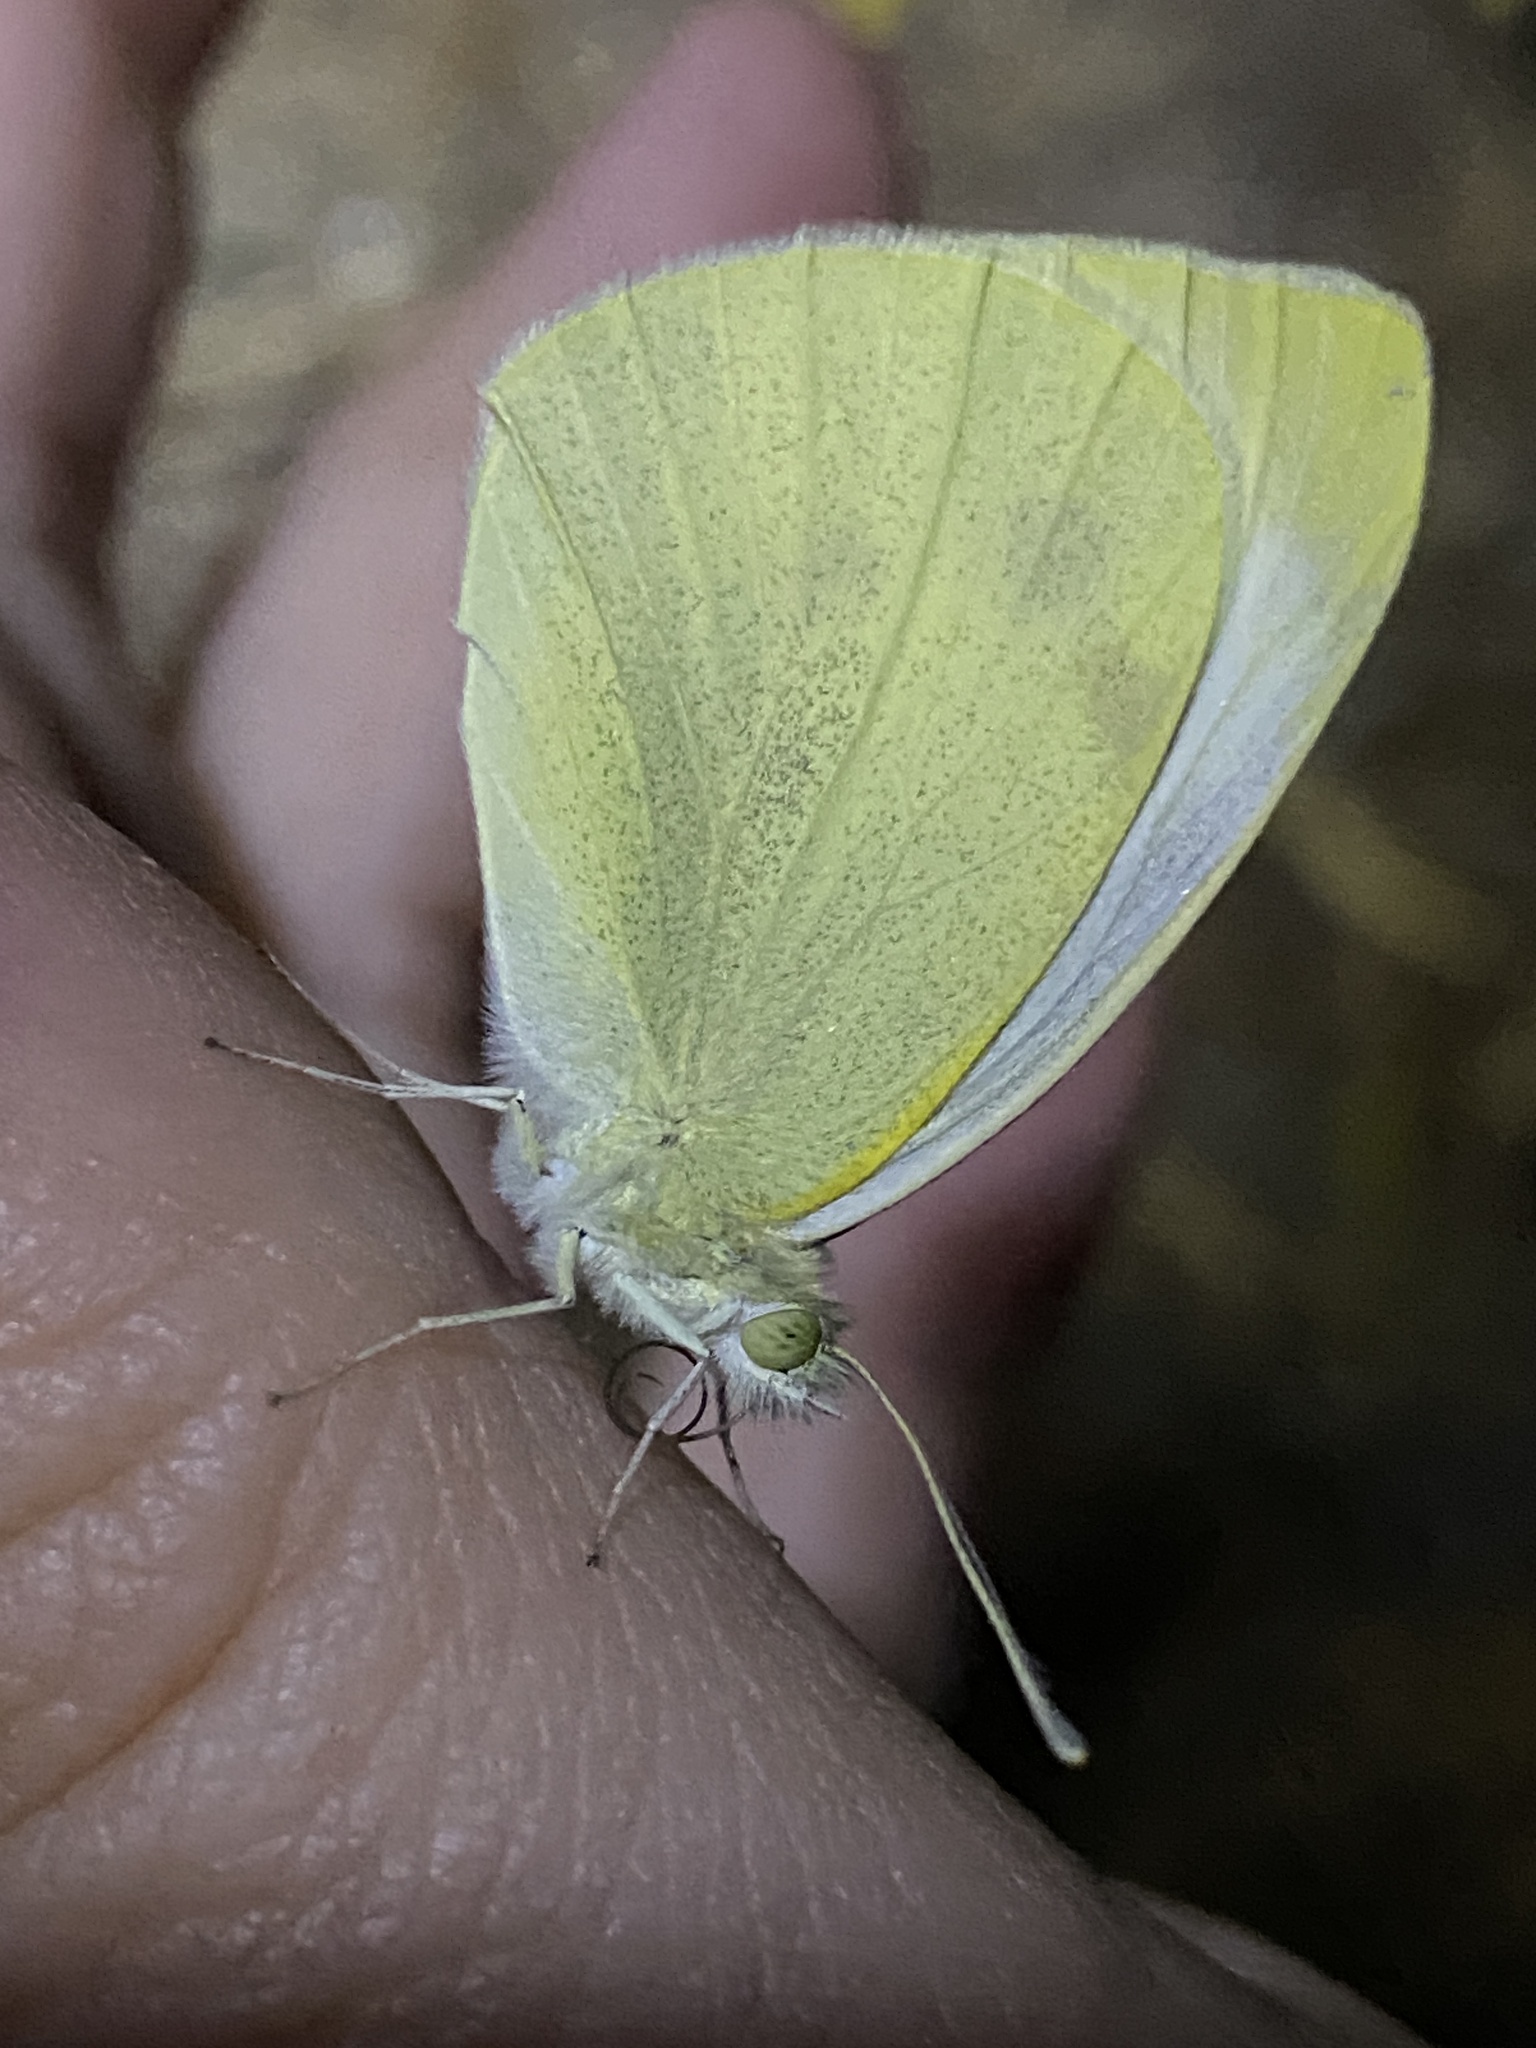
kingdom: Animalia
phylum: Arthropoda
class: Insecta
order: Lepidoptera
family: Pieridae
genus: Pieris
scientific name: Pieris rapae
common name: Small white
